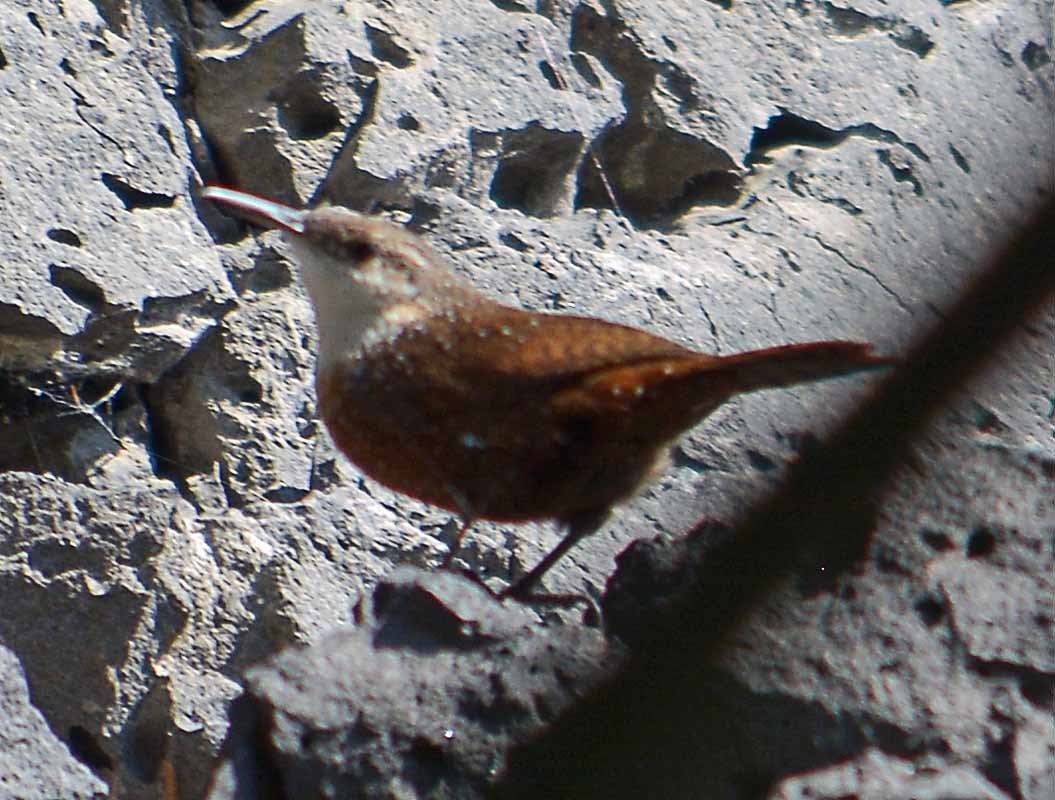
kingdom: Animalia
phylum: Chordata
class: Aves
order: Passeriformes
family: Troglodytidae
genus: Catherpes
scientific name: Catherpes mexicanus
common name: Canyon wren
